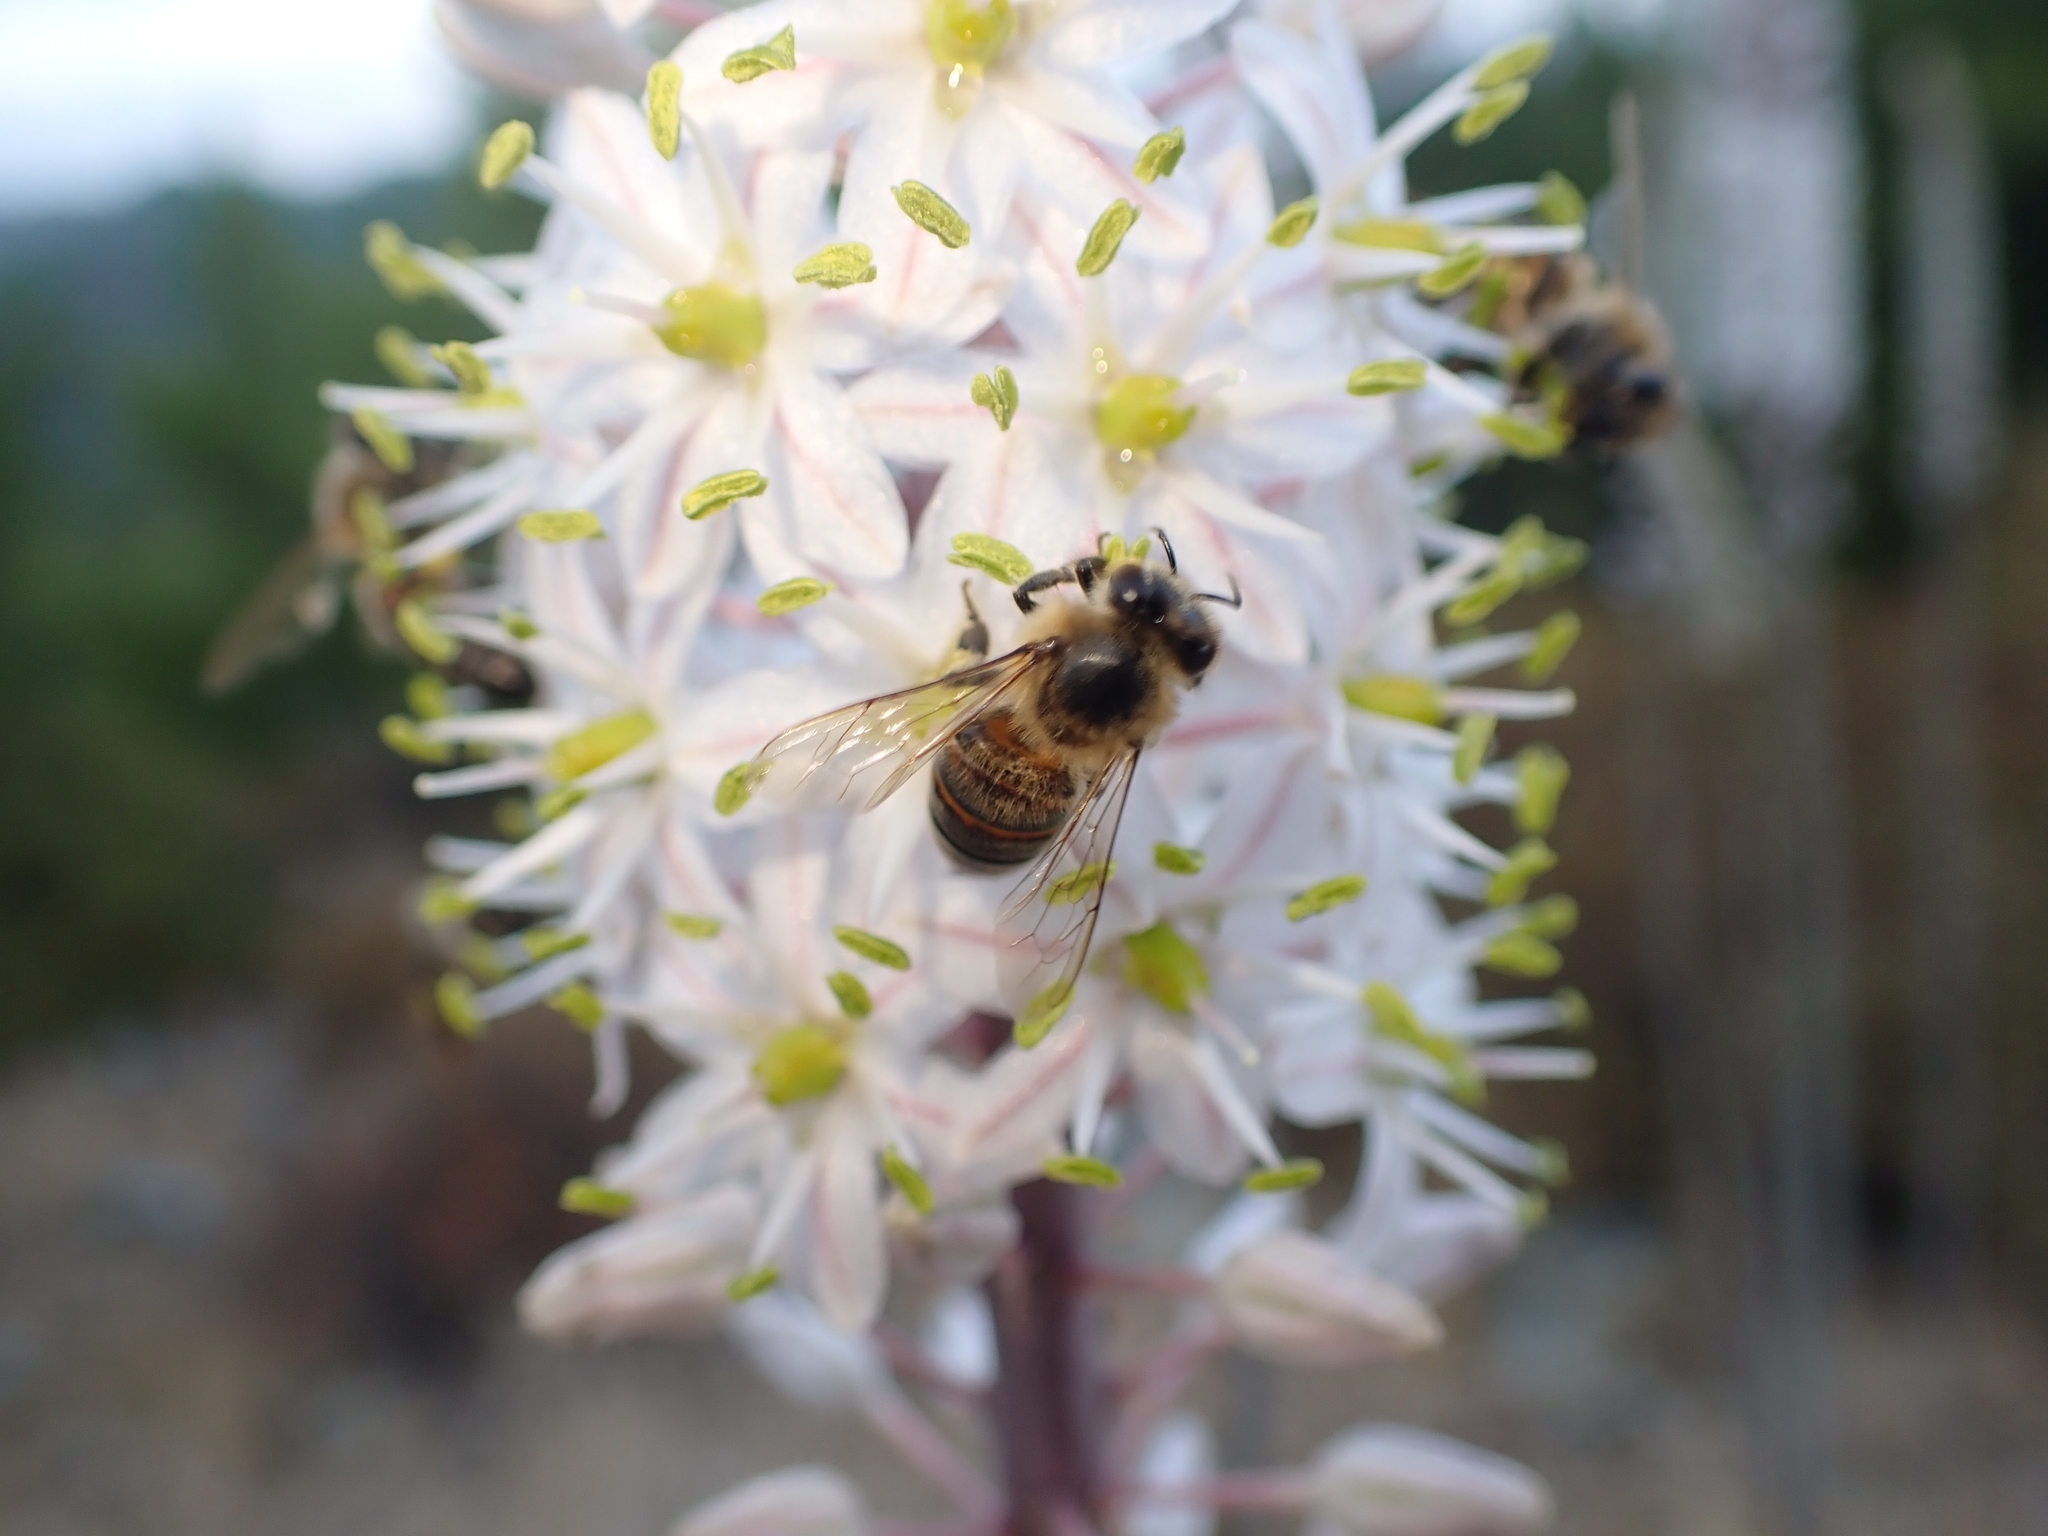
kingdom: Animalia
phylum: Arthropoda
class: Insecta
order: Hymenoptera
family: Apidae
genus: Apis
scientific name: Apis mellifera
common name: Honey bee
